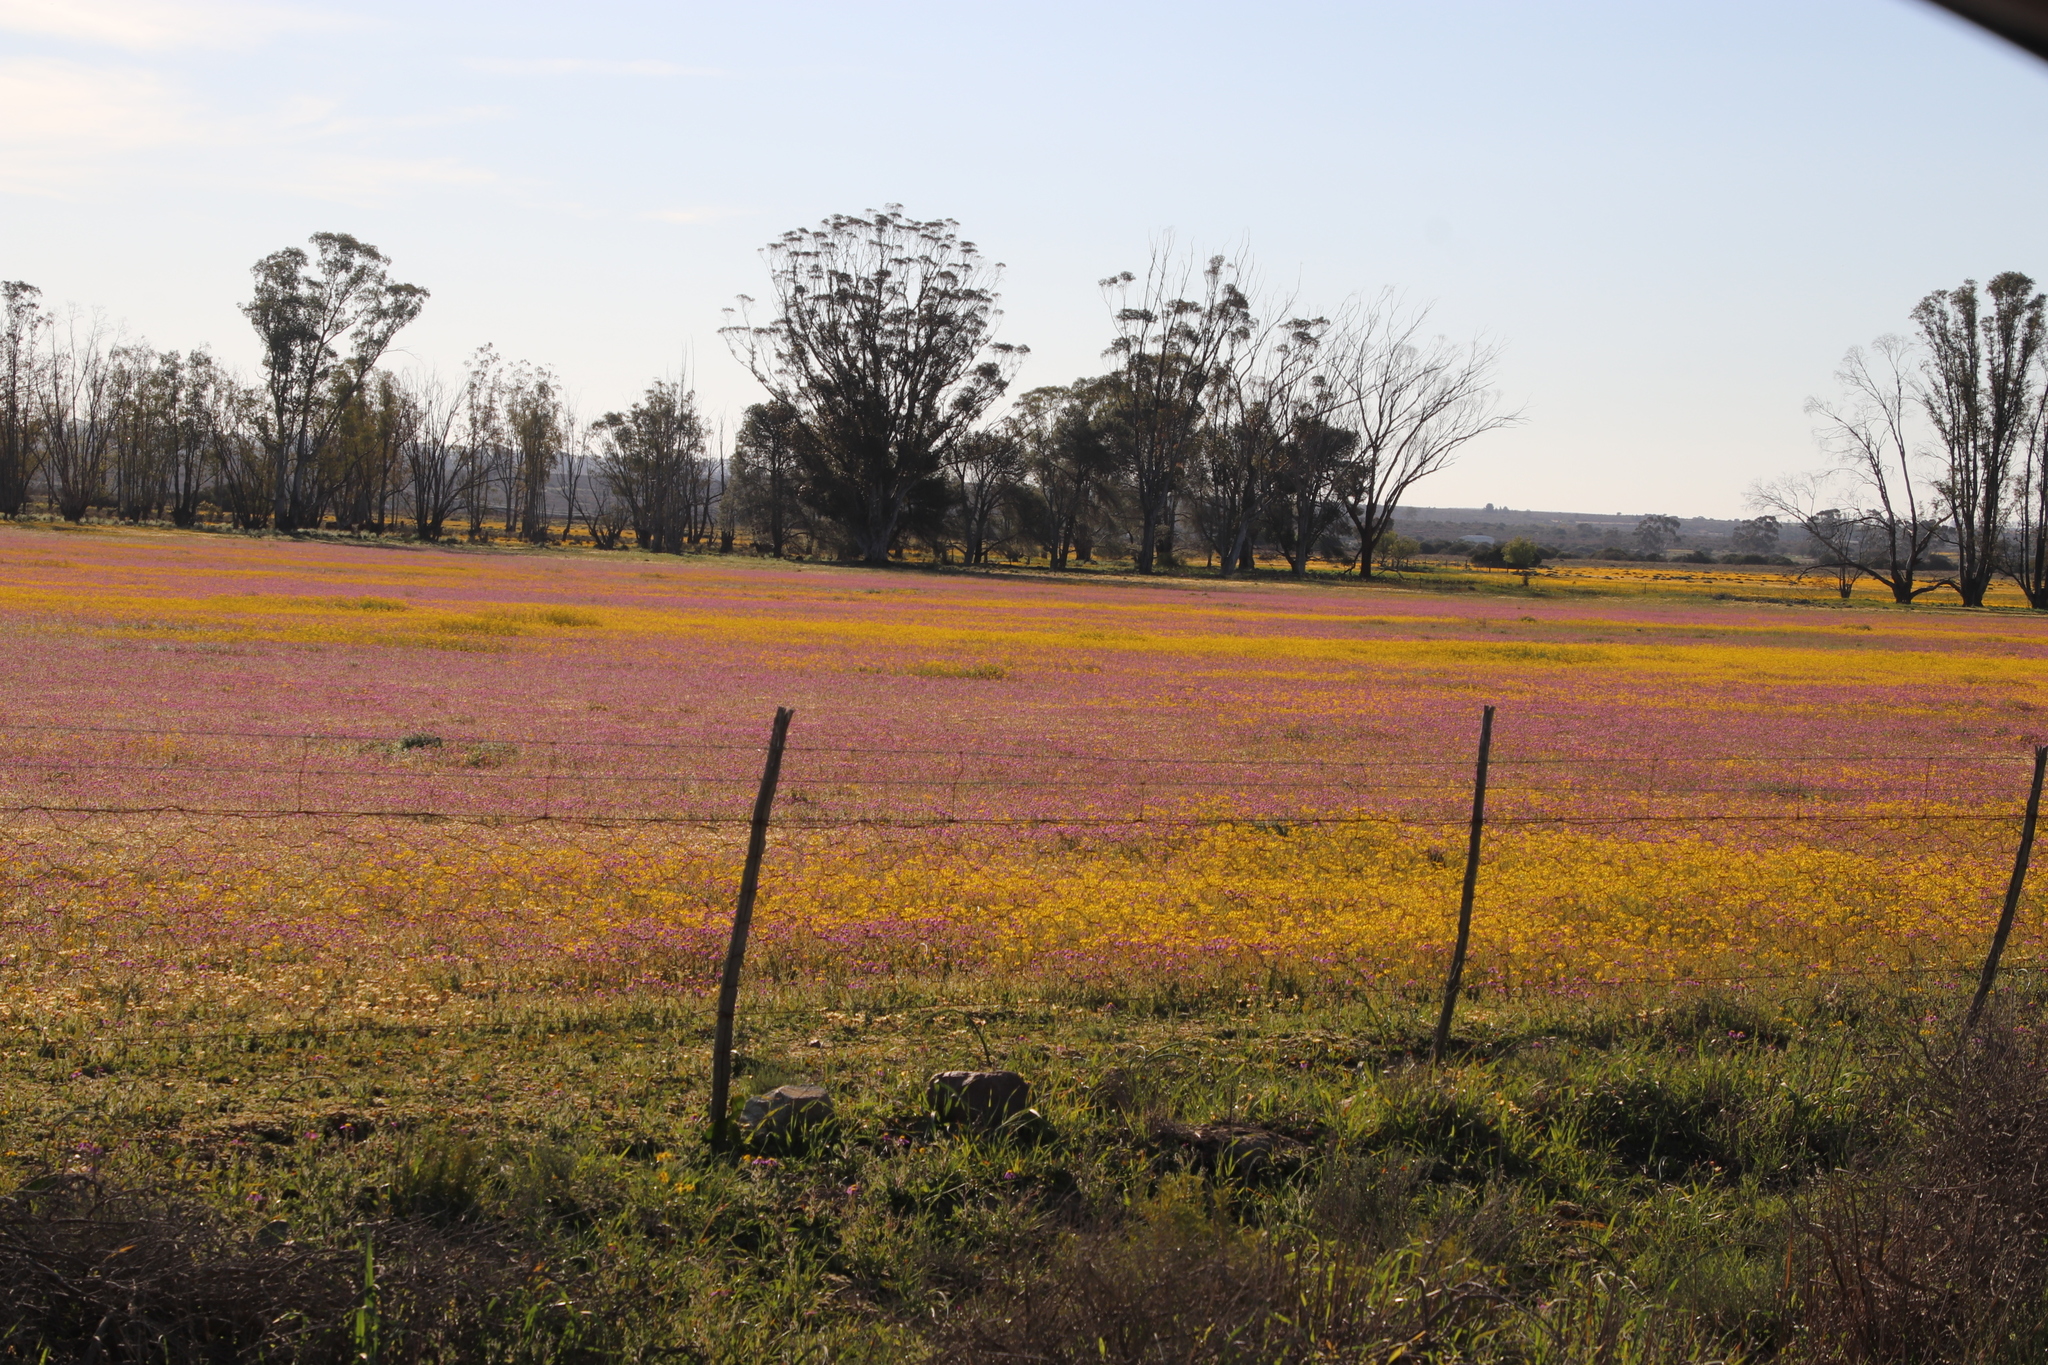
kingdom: Plantae
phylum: Tracheophyta
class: Magnoliopsida
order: Asterales
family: Asteraceae
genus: Senecio
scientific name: Senecio abruptus
